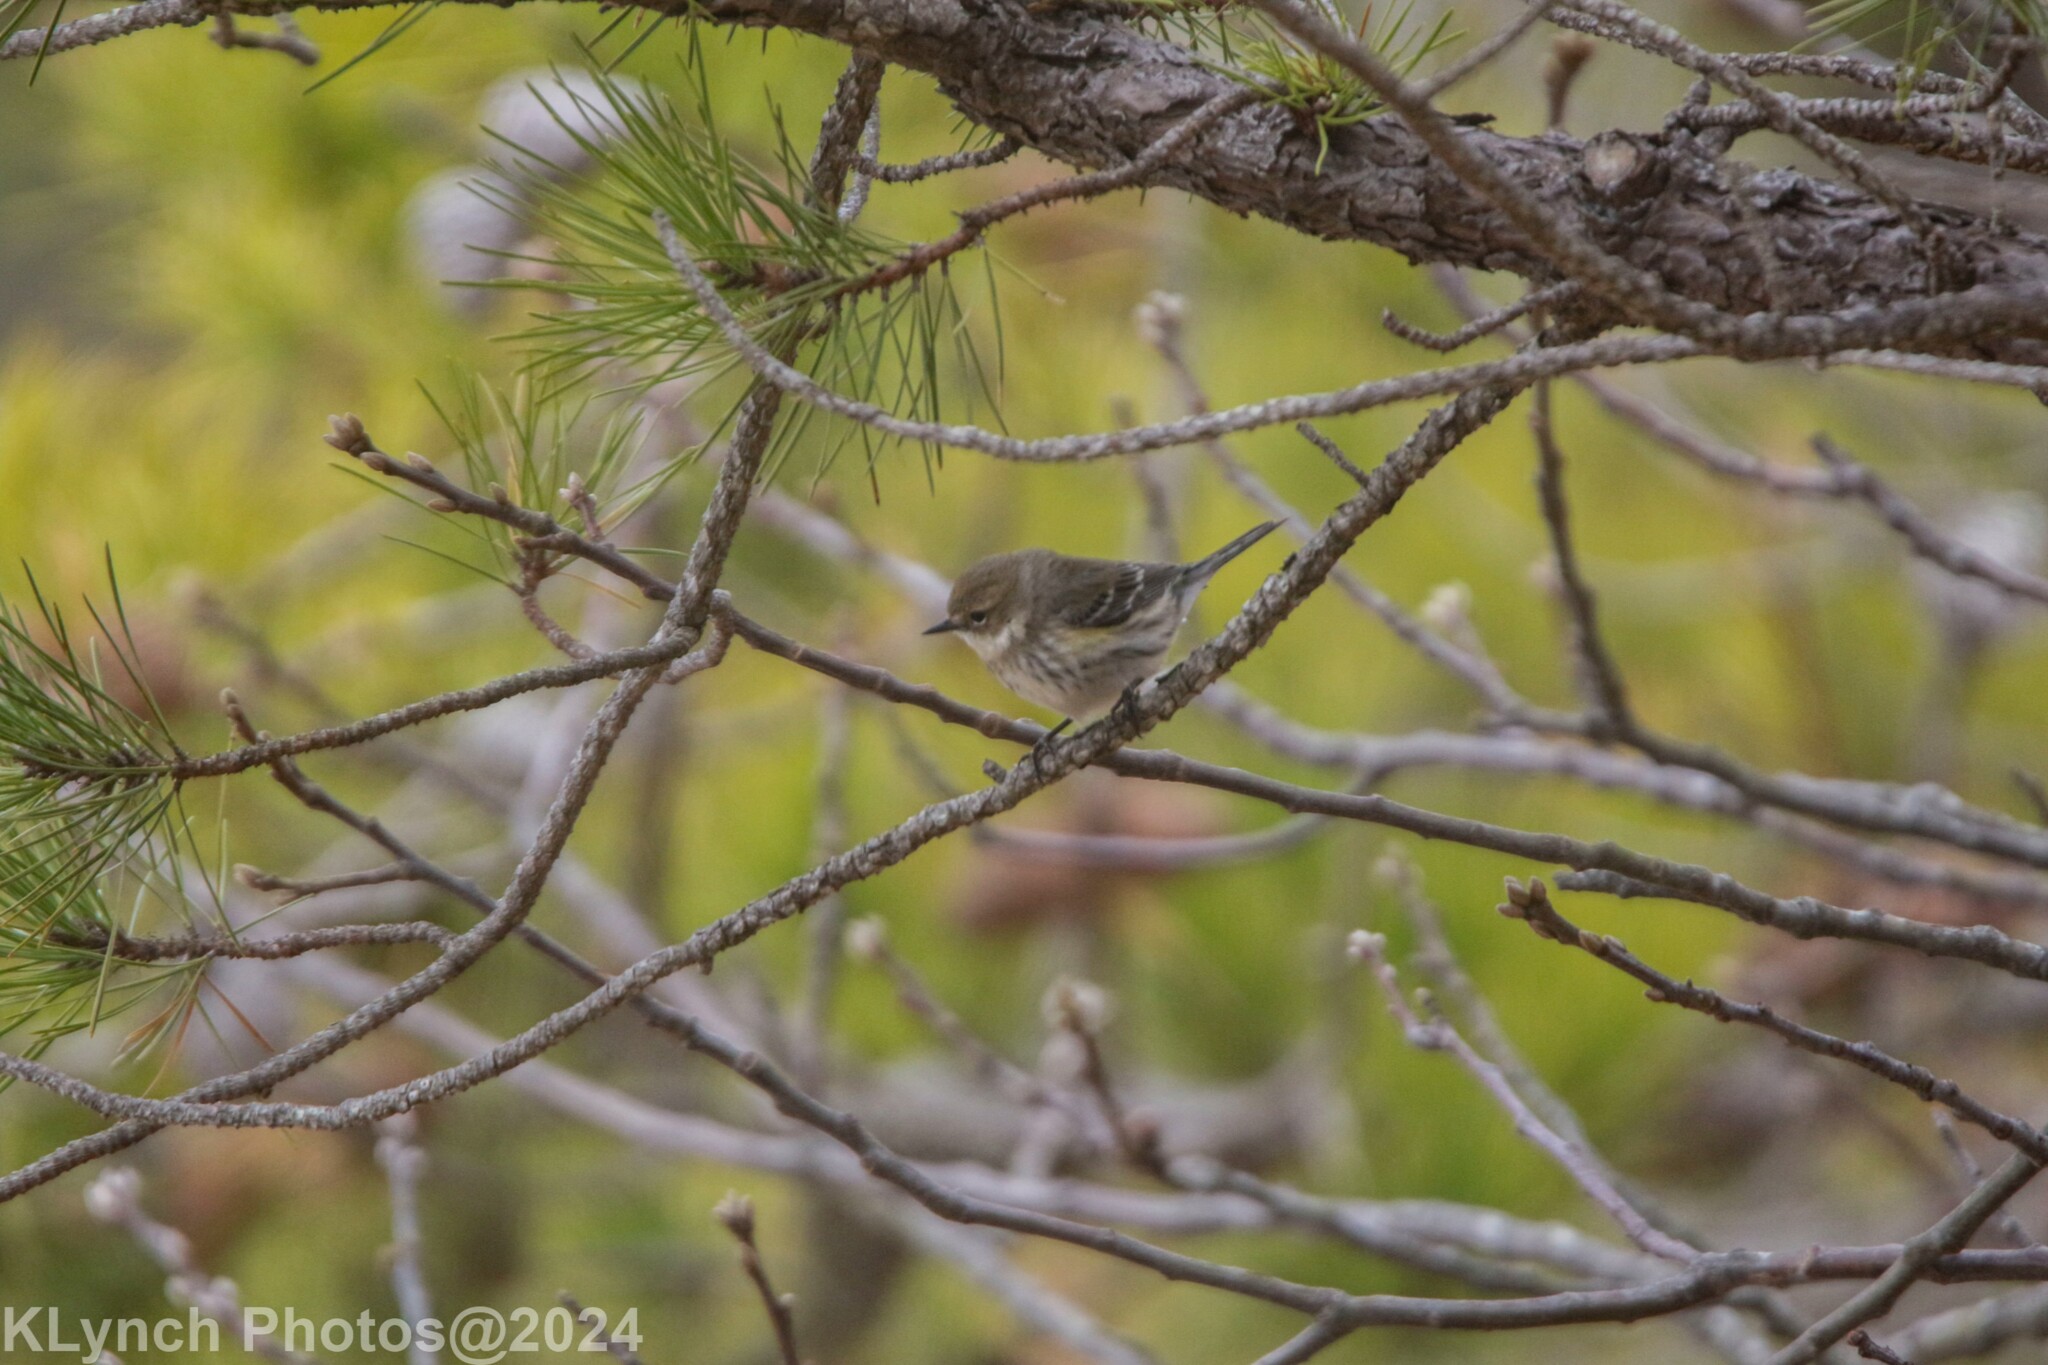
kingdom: Animalia
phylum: Chordata
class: Aves
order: Passeriformes
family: Parulidae
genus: Setophaga
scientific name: Setophaga coronata
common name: Myrtle warbler
